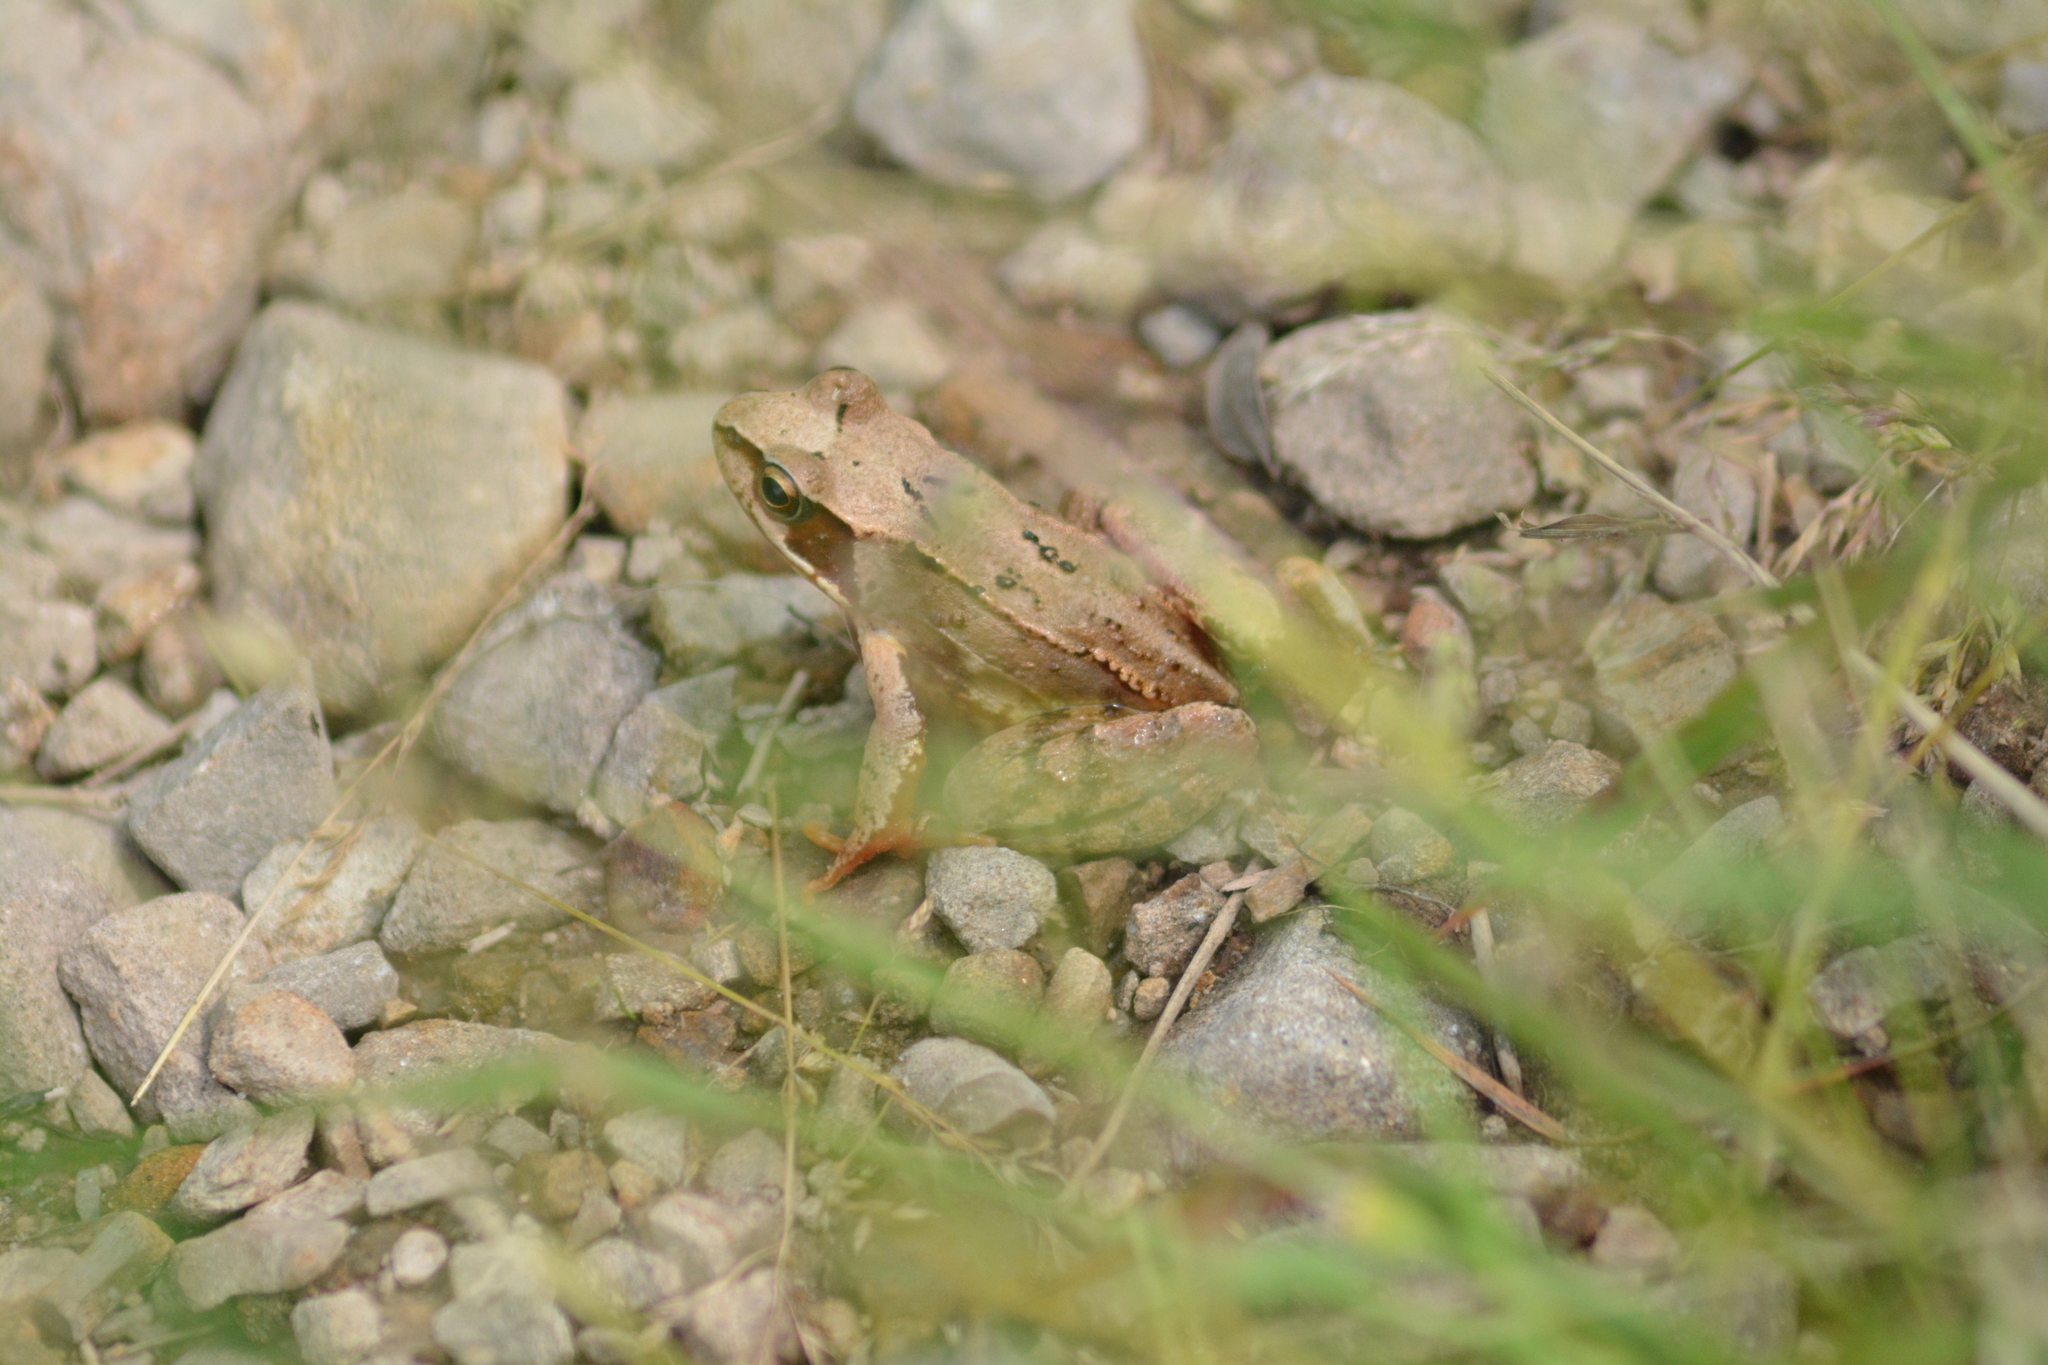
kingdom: Animalia
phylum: Chordata
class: Amphibia
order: Anura
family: Ranidae
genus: Rana
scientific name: Rana temporaria
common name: Common frog
